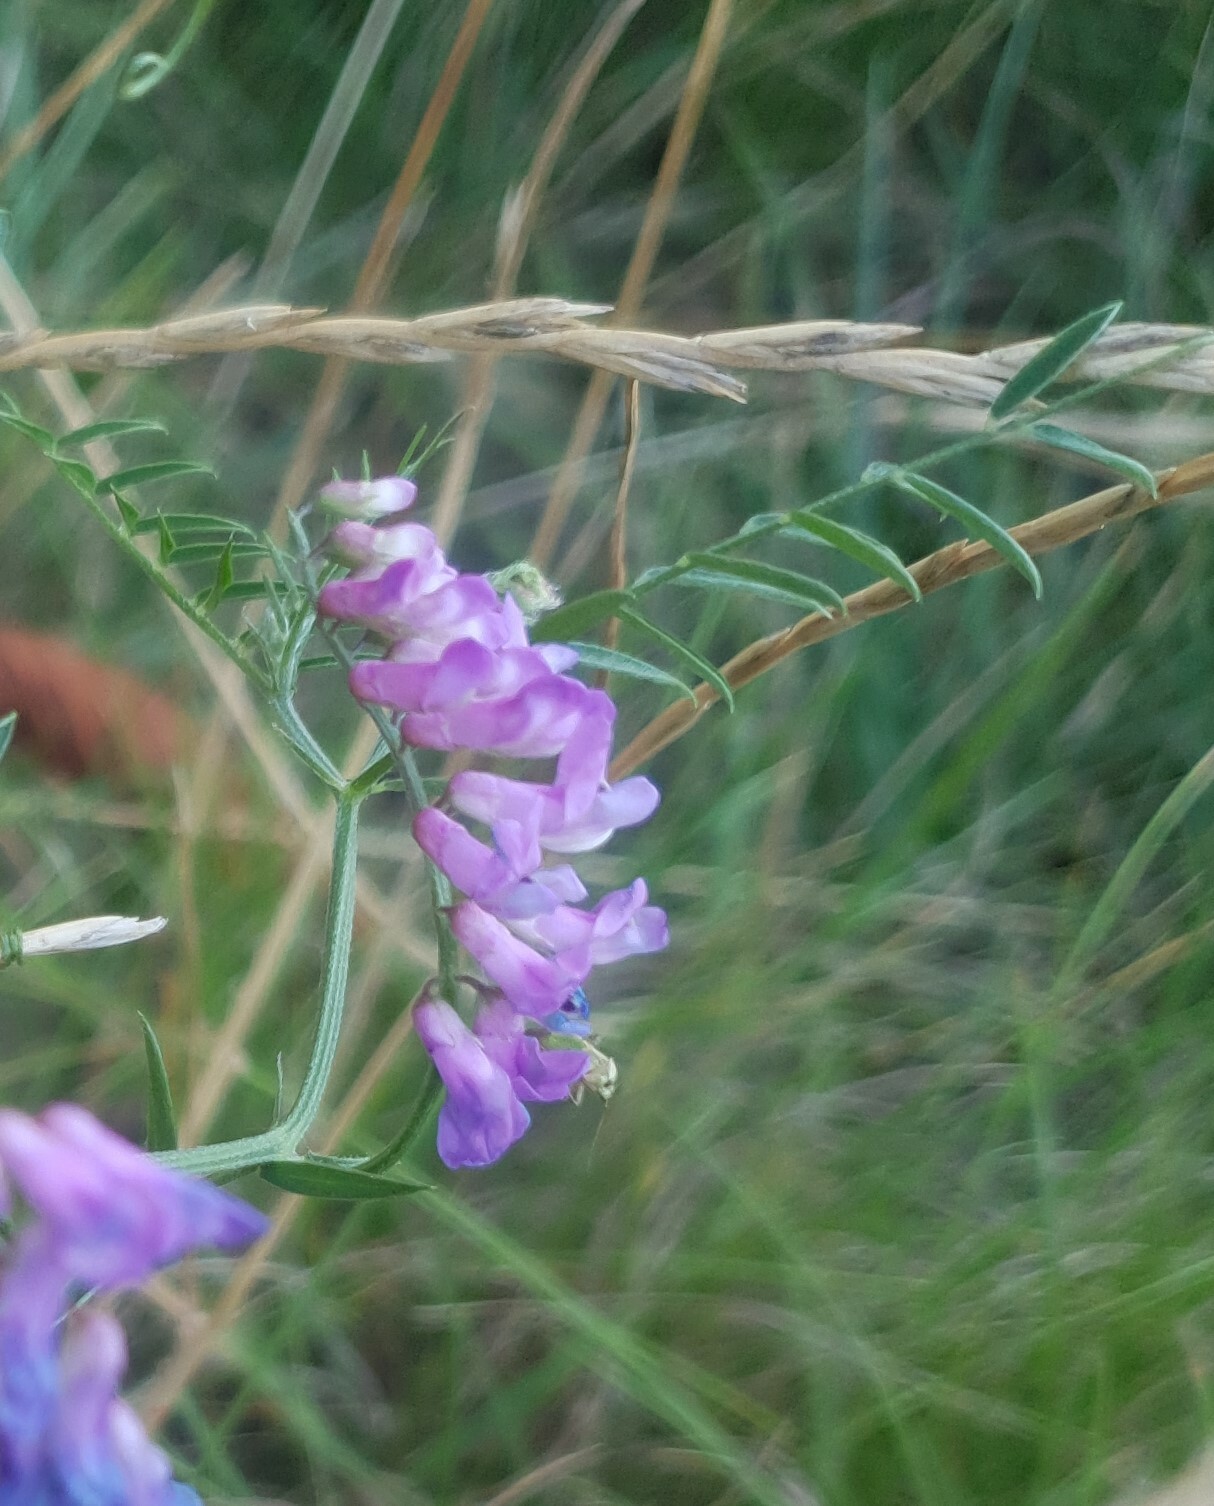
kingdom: Plantae
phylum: Tracheophyta
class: Magnoliopsida
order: Fabales
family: Fabaceae
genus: Vicia
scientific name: Vicia cracca
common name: Bird vetch
